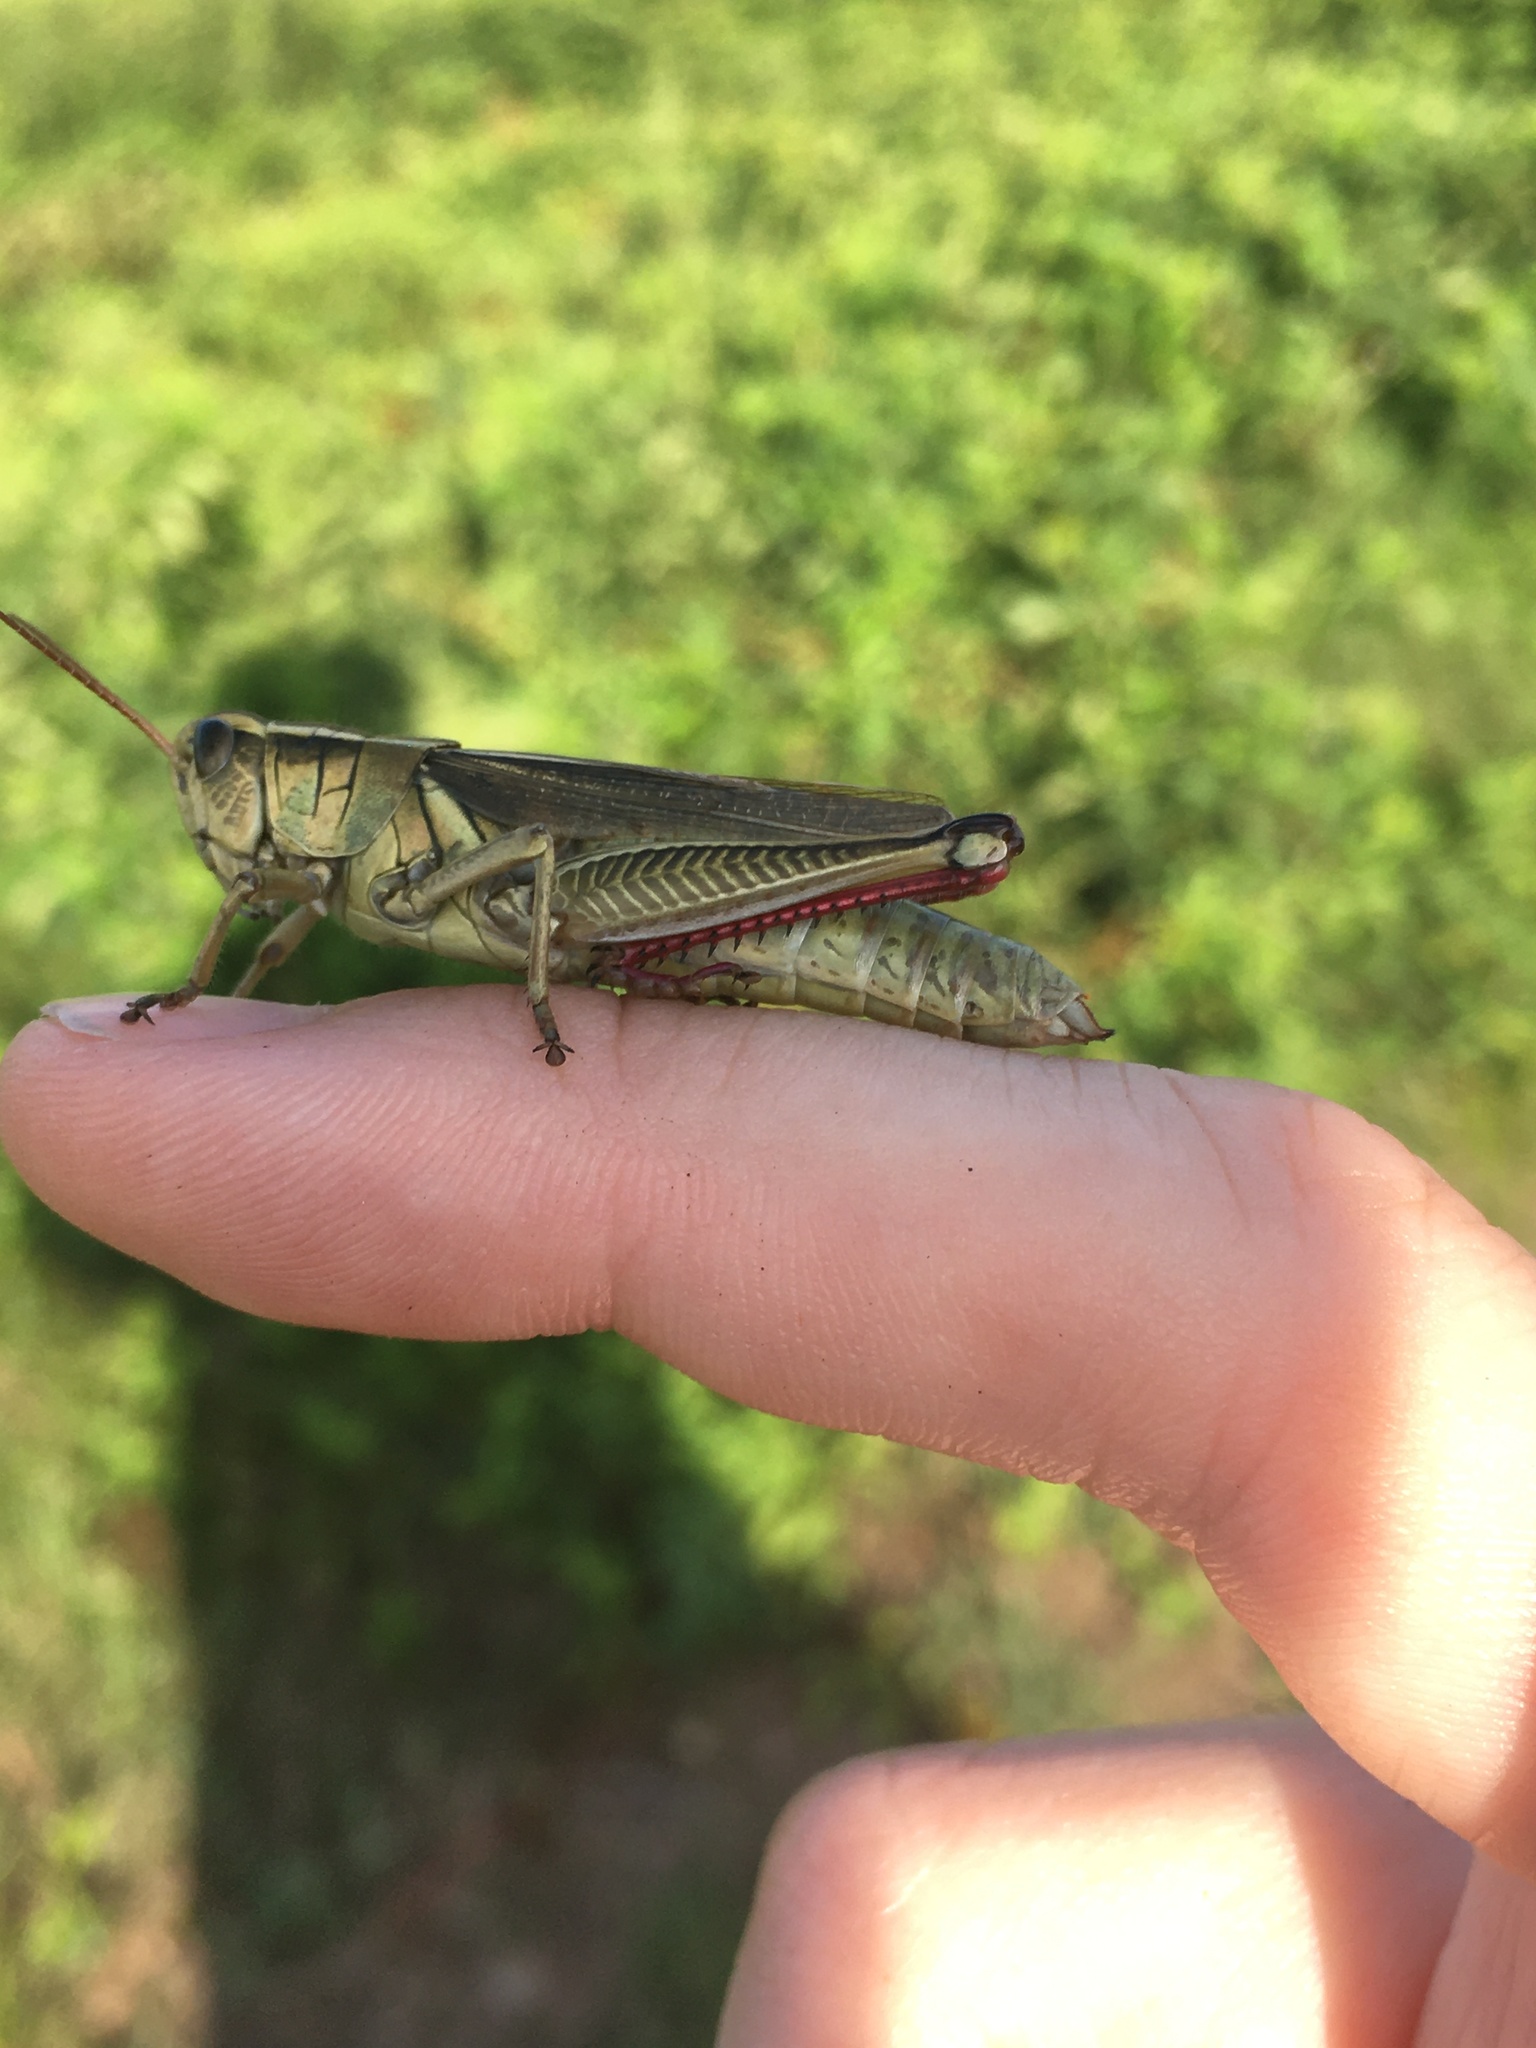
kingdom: Animalia
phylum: Arthropoda
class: Insecta
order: Orthoptera
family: Acrididae
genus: Melanoplus
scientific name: Melanoplus bivittatus
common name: Two-striped grasshopper
